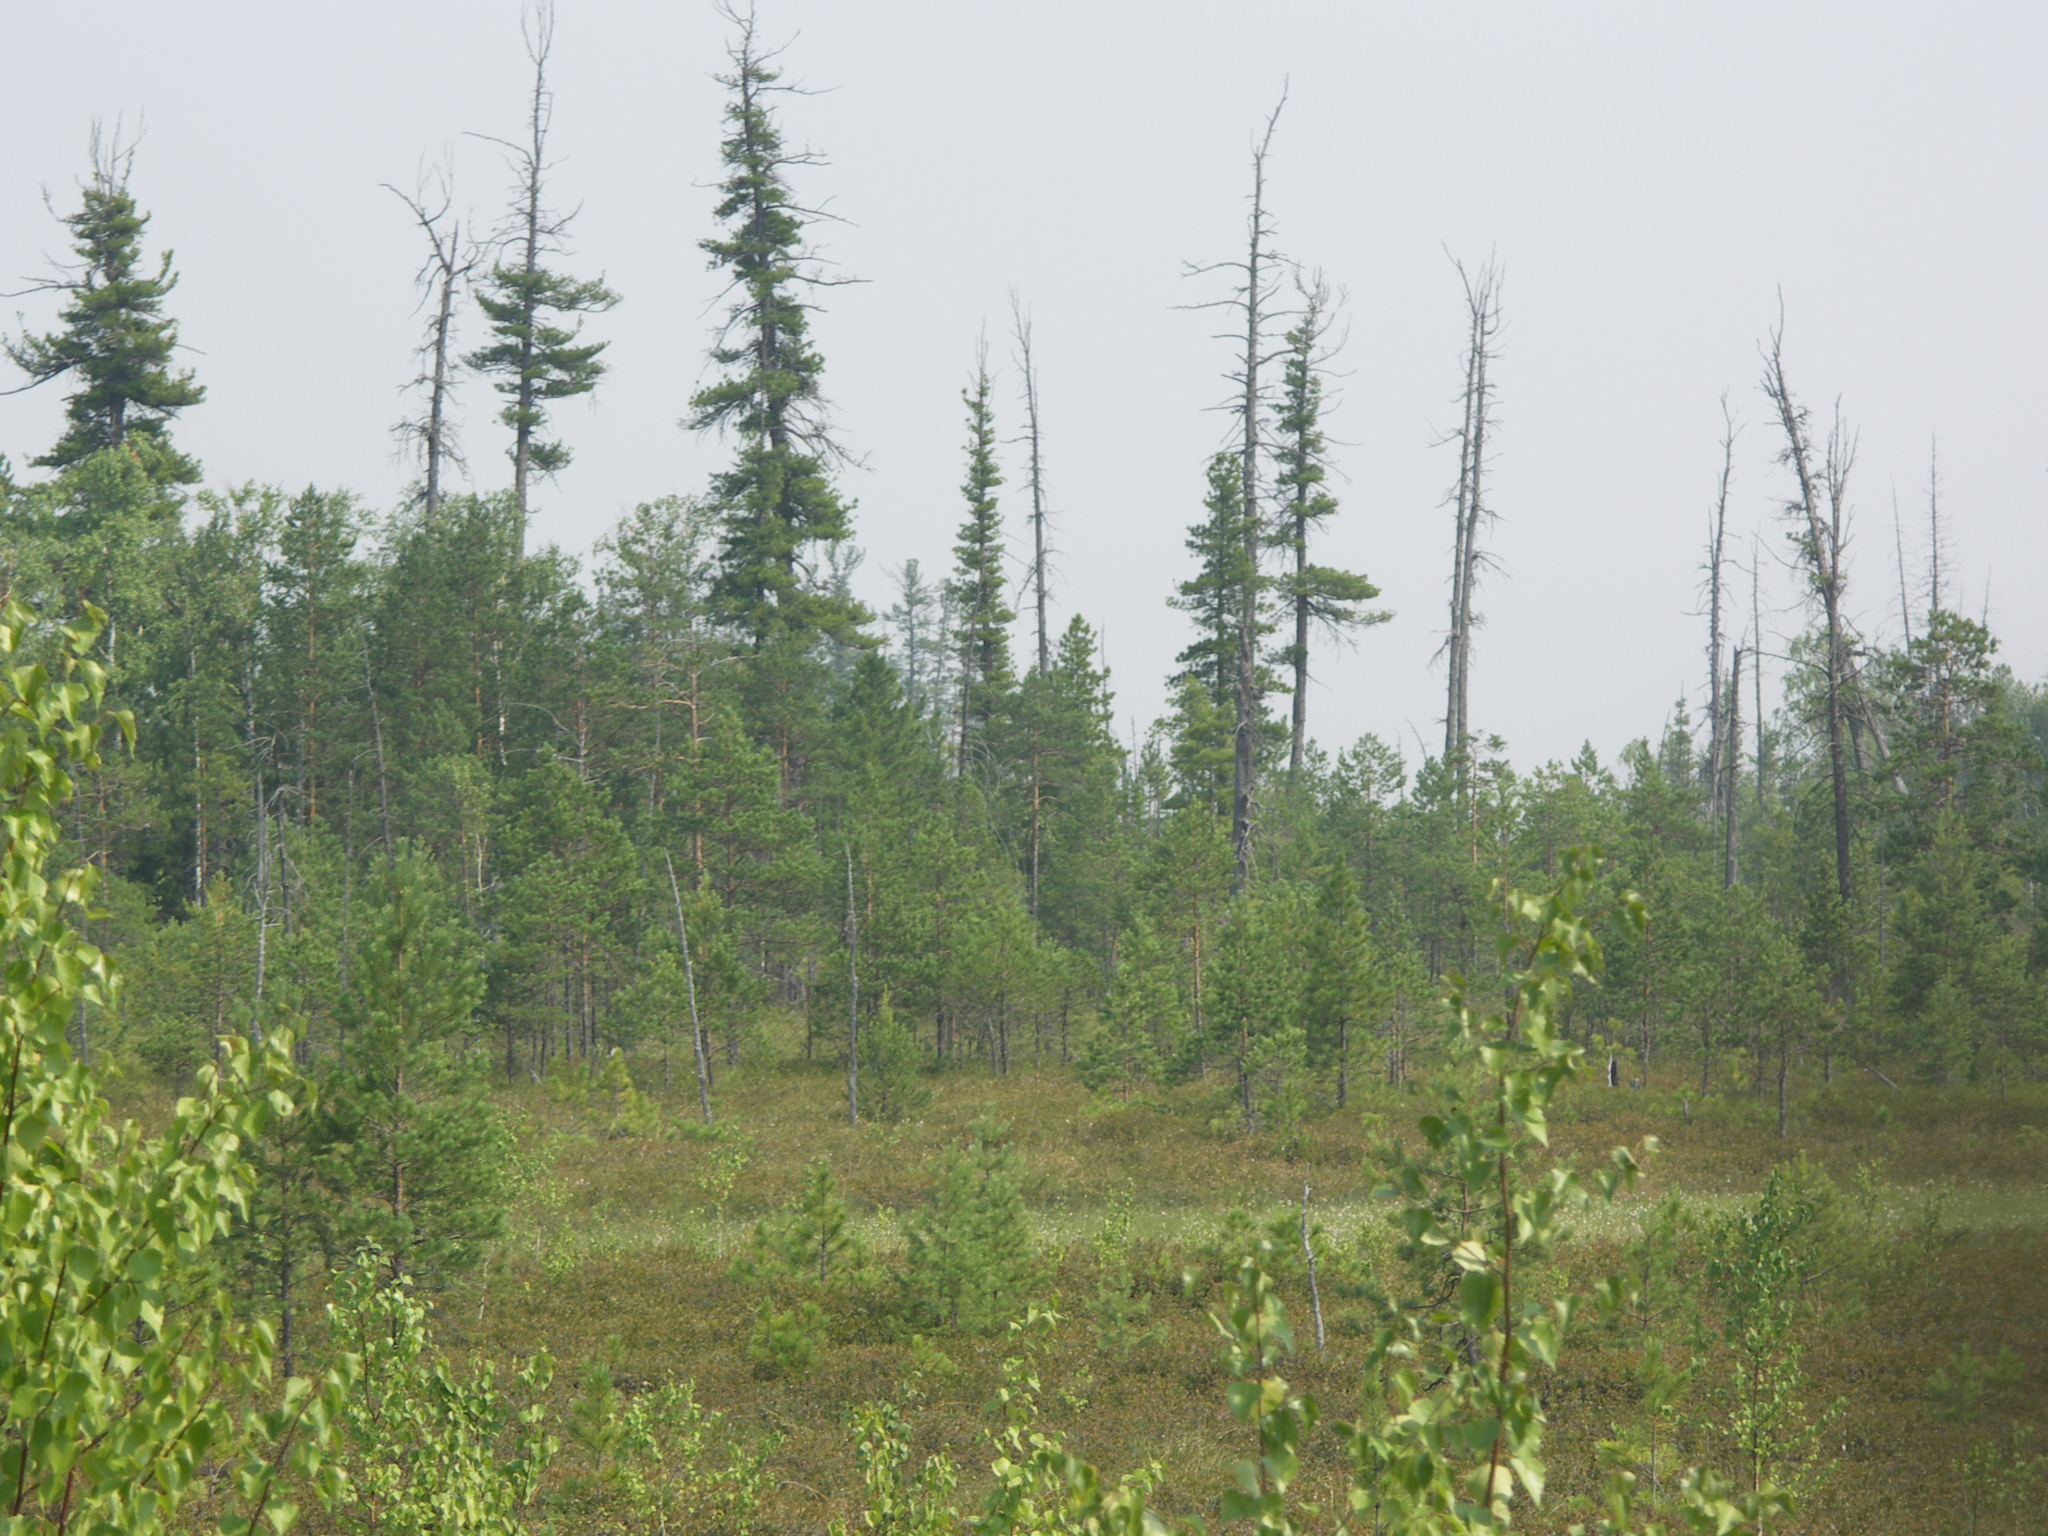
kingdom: Plantae
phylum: Tracheophyta
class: Pinopsida
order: Pinales
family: Pinaceae
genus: Picea
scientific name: Picea obovata
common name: Siberian spruce
